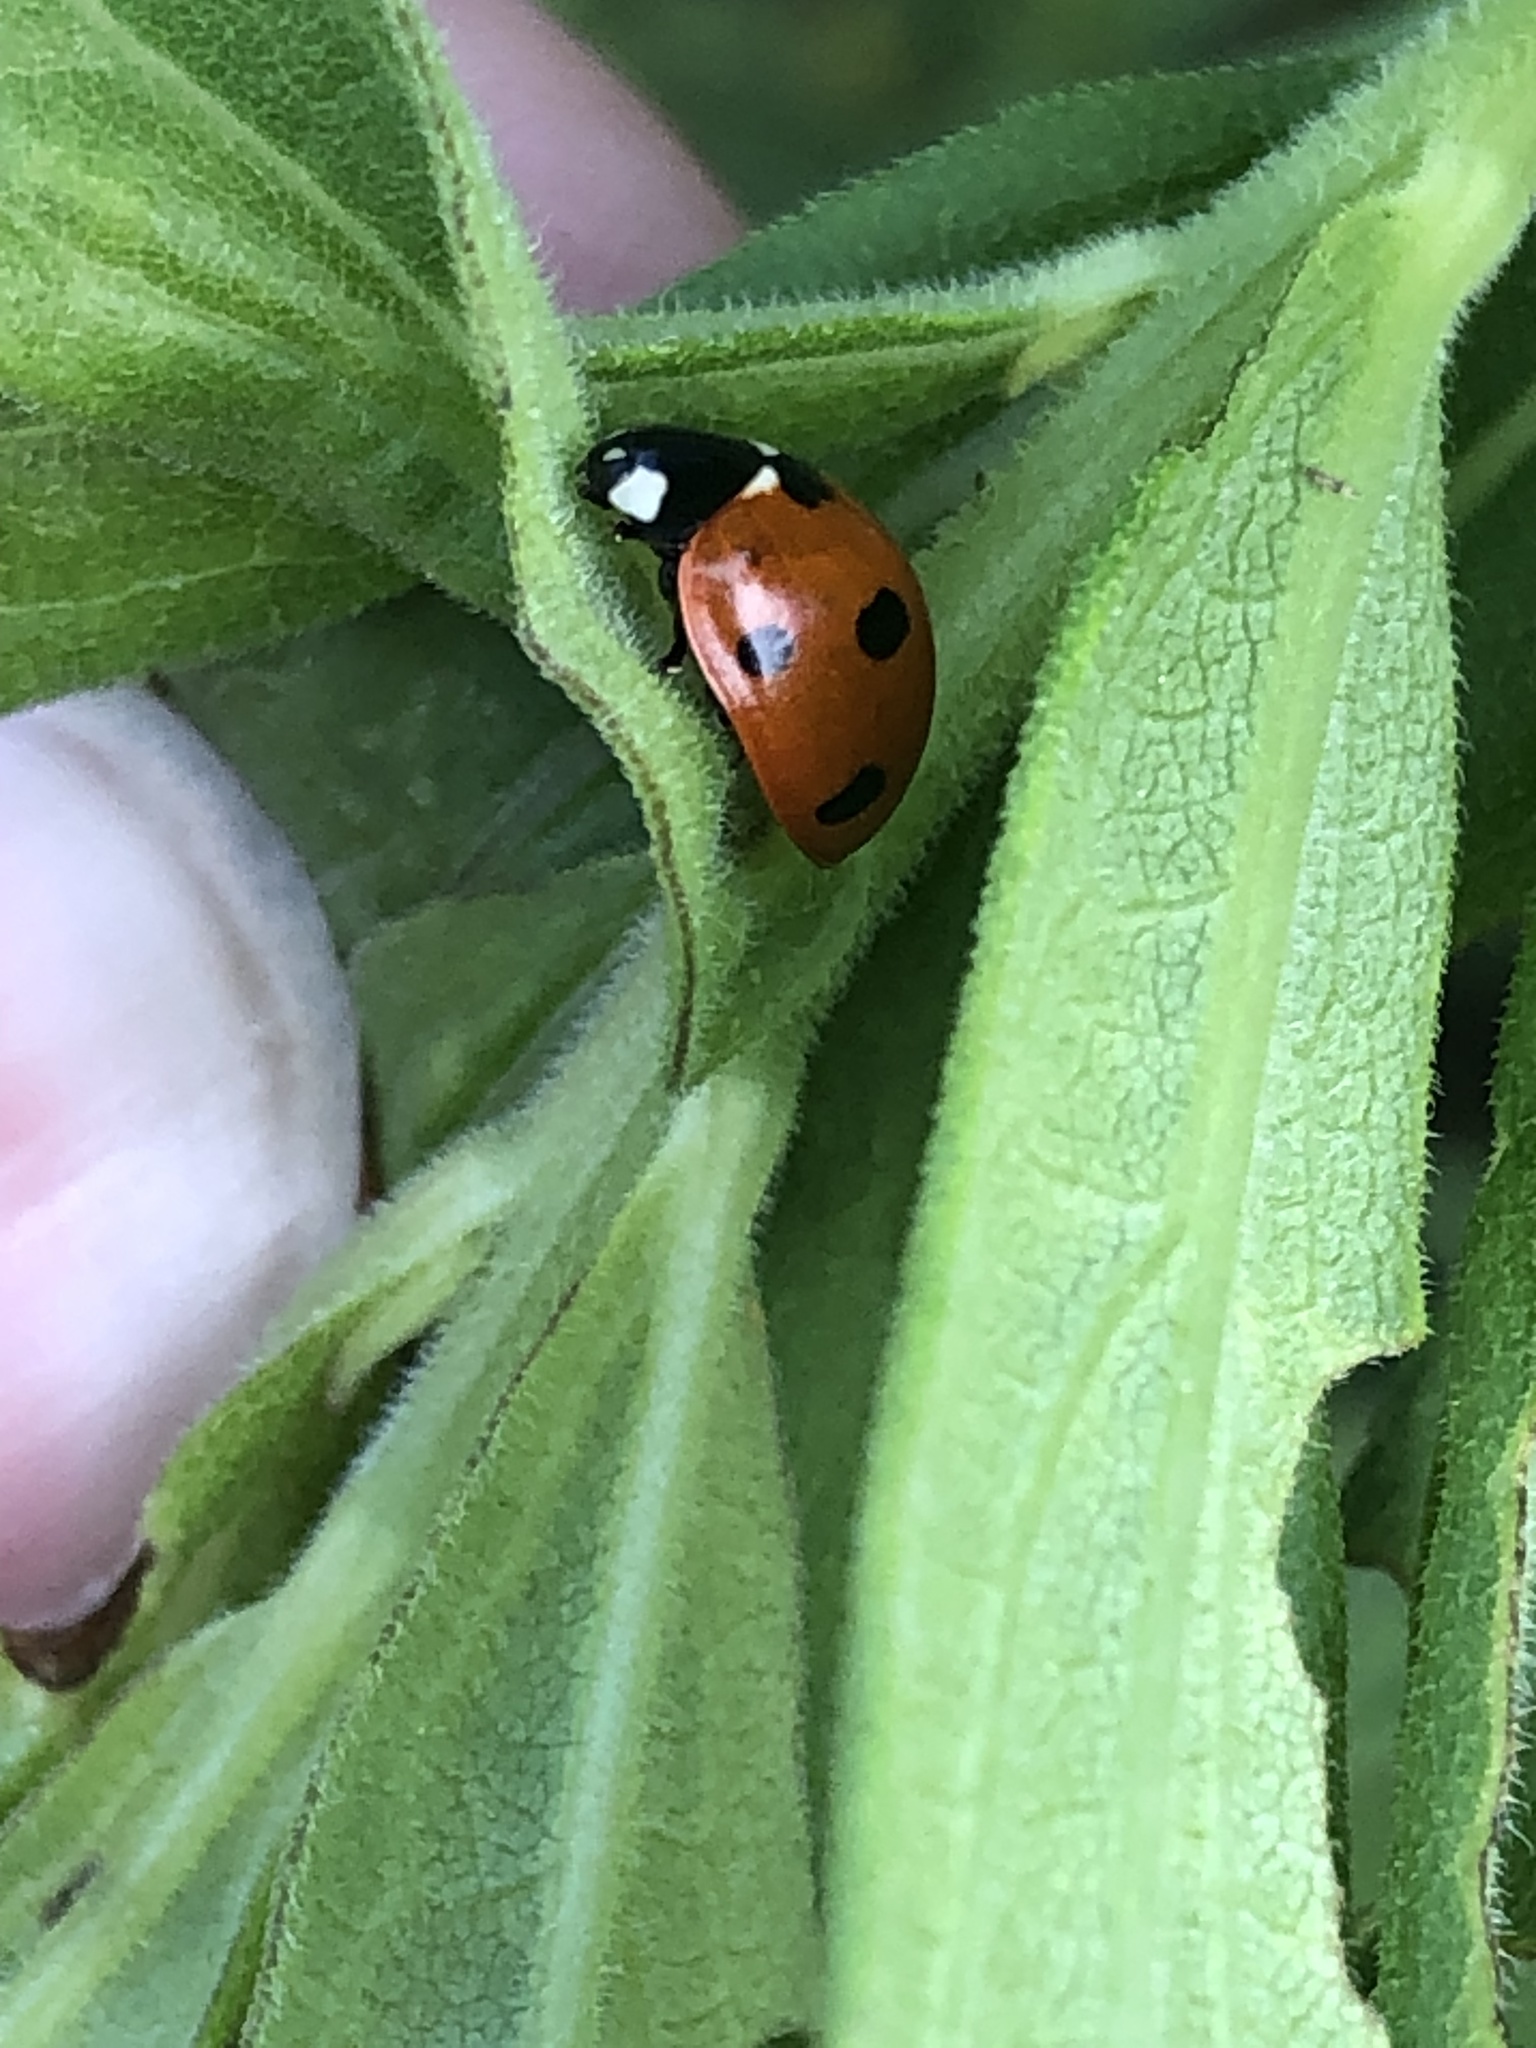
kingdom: Animalia
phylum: Arthropoda
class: Insecta
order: Coleoptera
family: Coccinellidae
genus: Coccinella
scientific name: Coccinella septempunctata
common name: Sevenspotted lady beetle
